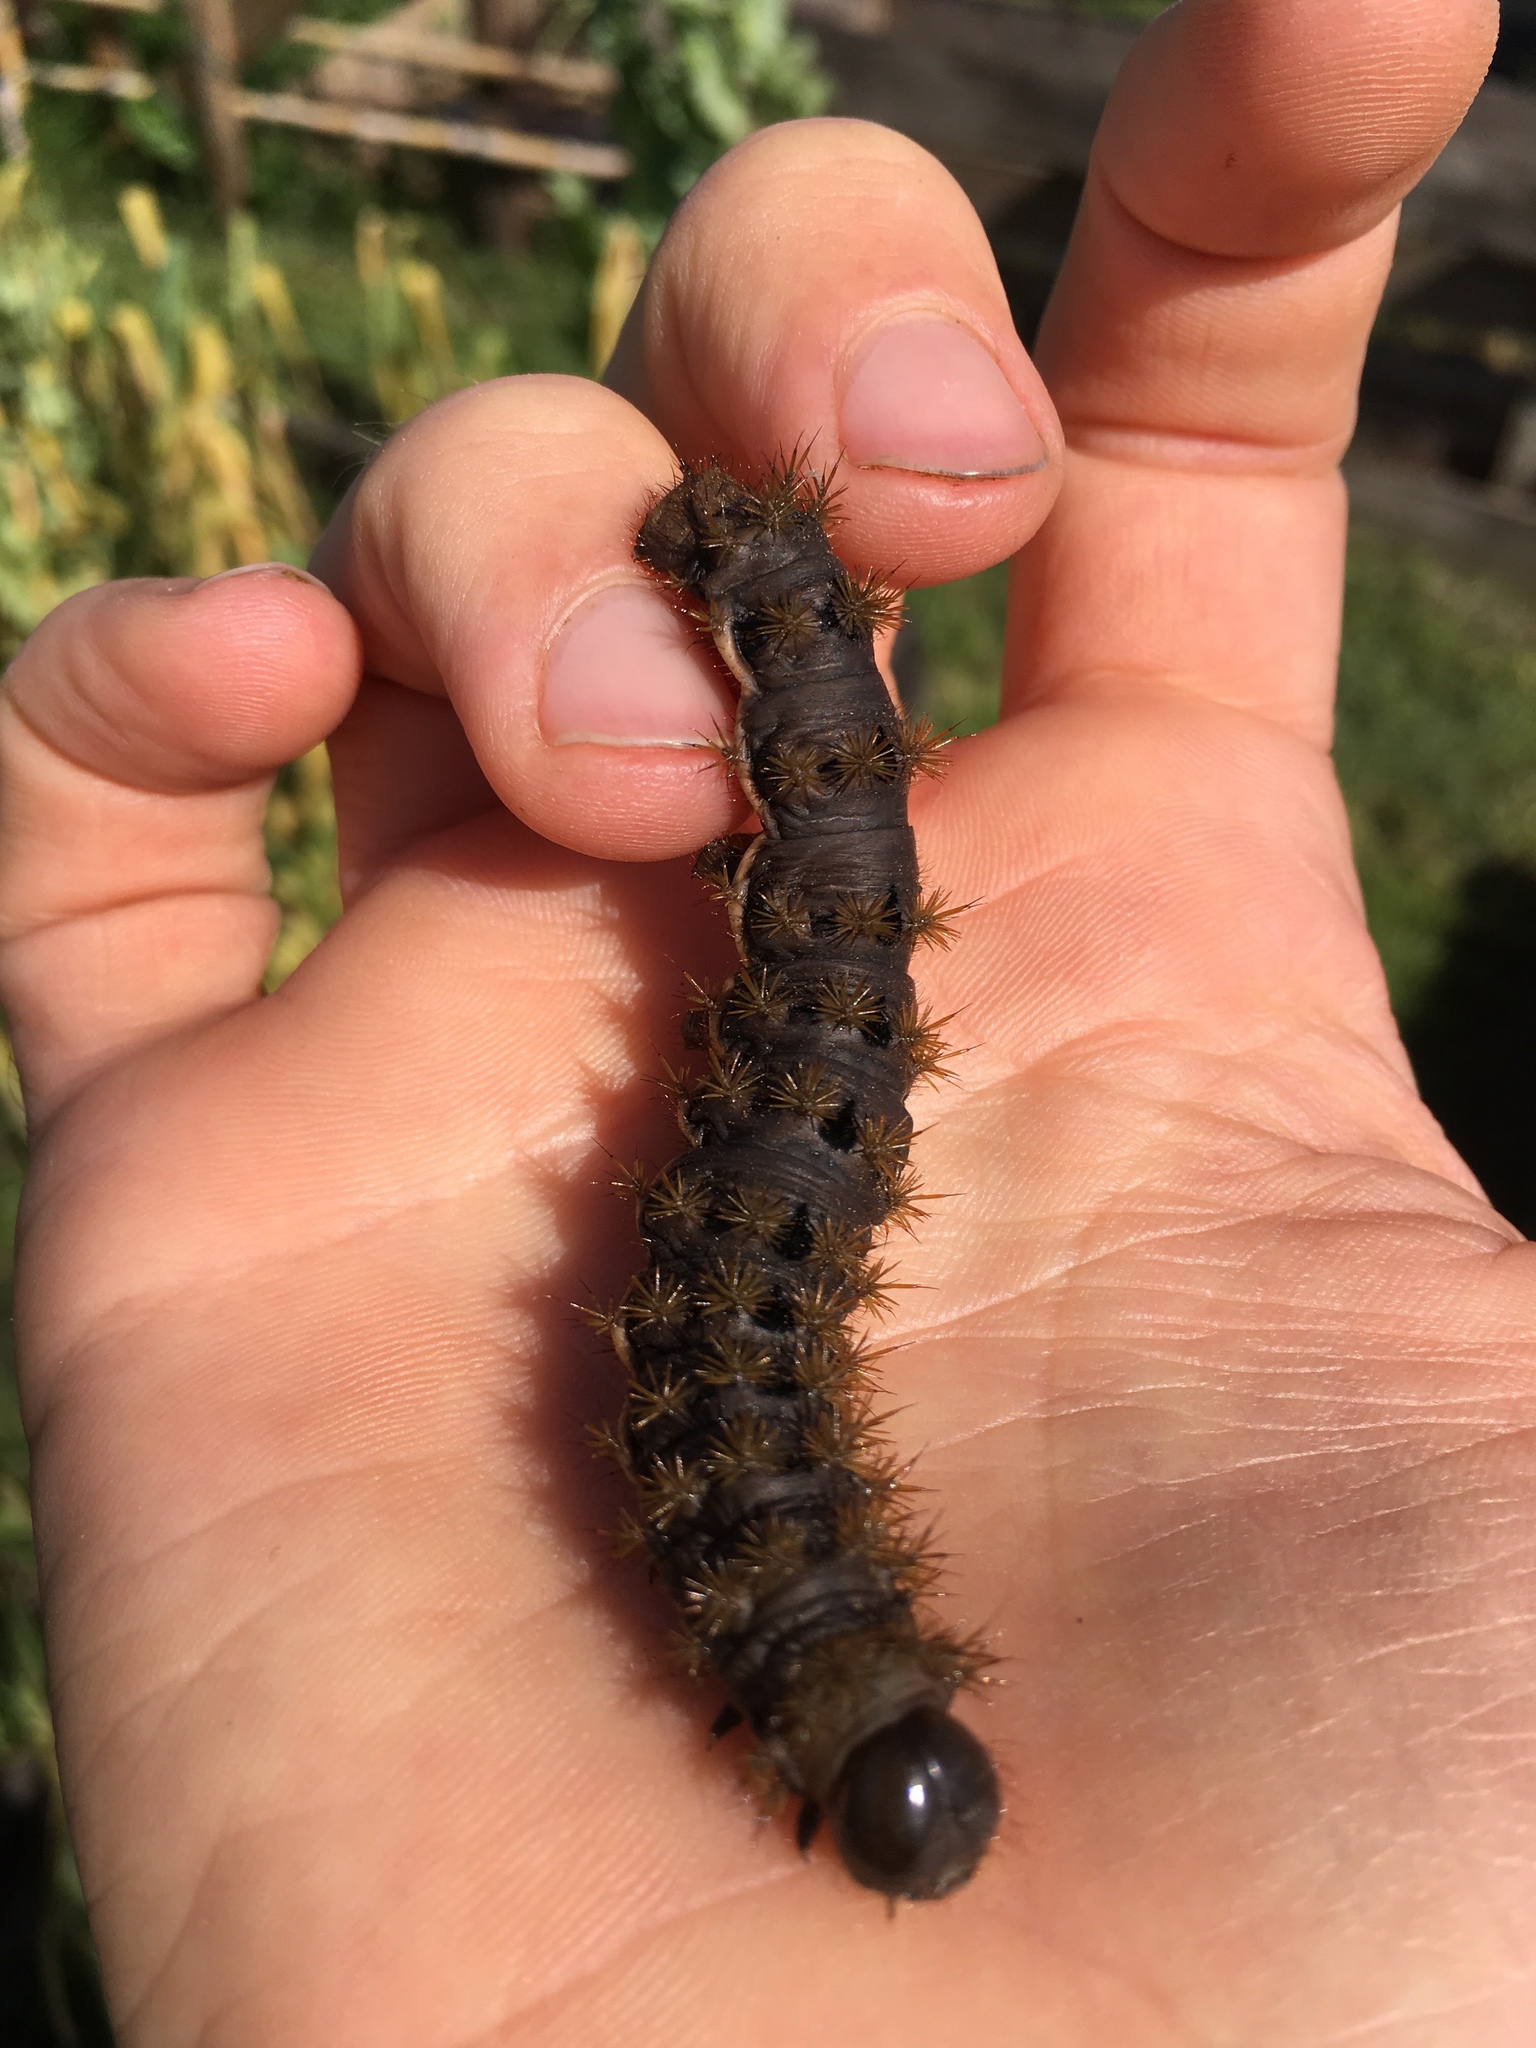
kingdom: Animalia
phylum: Arthropoda
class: Insecta
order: Lepidoptera
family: Saturniidae
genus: Heliconisa
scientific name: Heliconisa pagenstecheri
